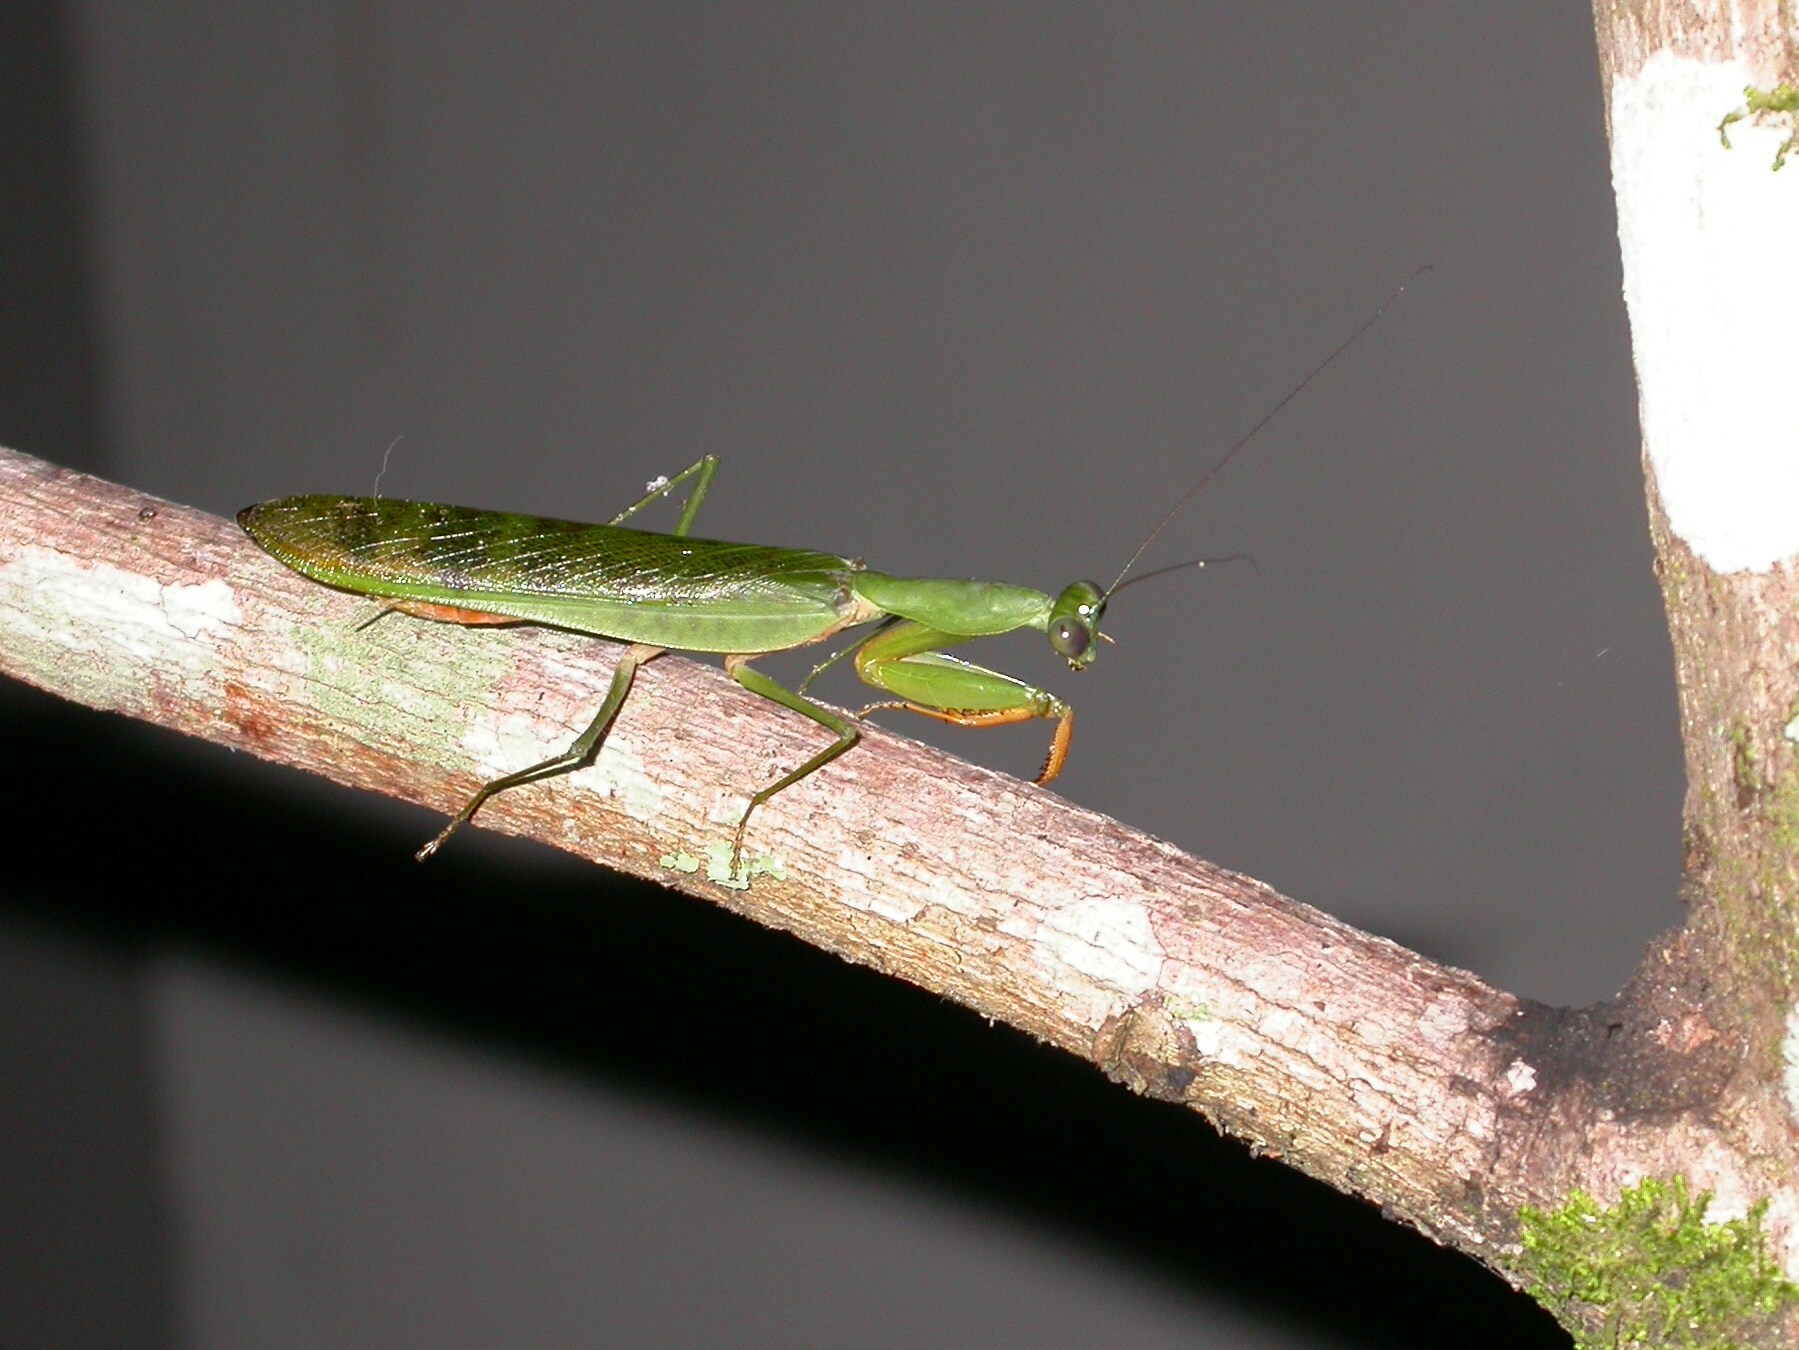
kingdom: Animalia
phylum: Arthropoda
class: Insecta
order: Mantodea
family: Mantidae
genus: Prohierodula
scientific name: Prohierodula laticollis
